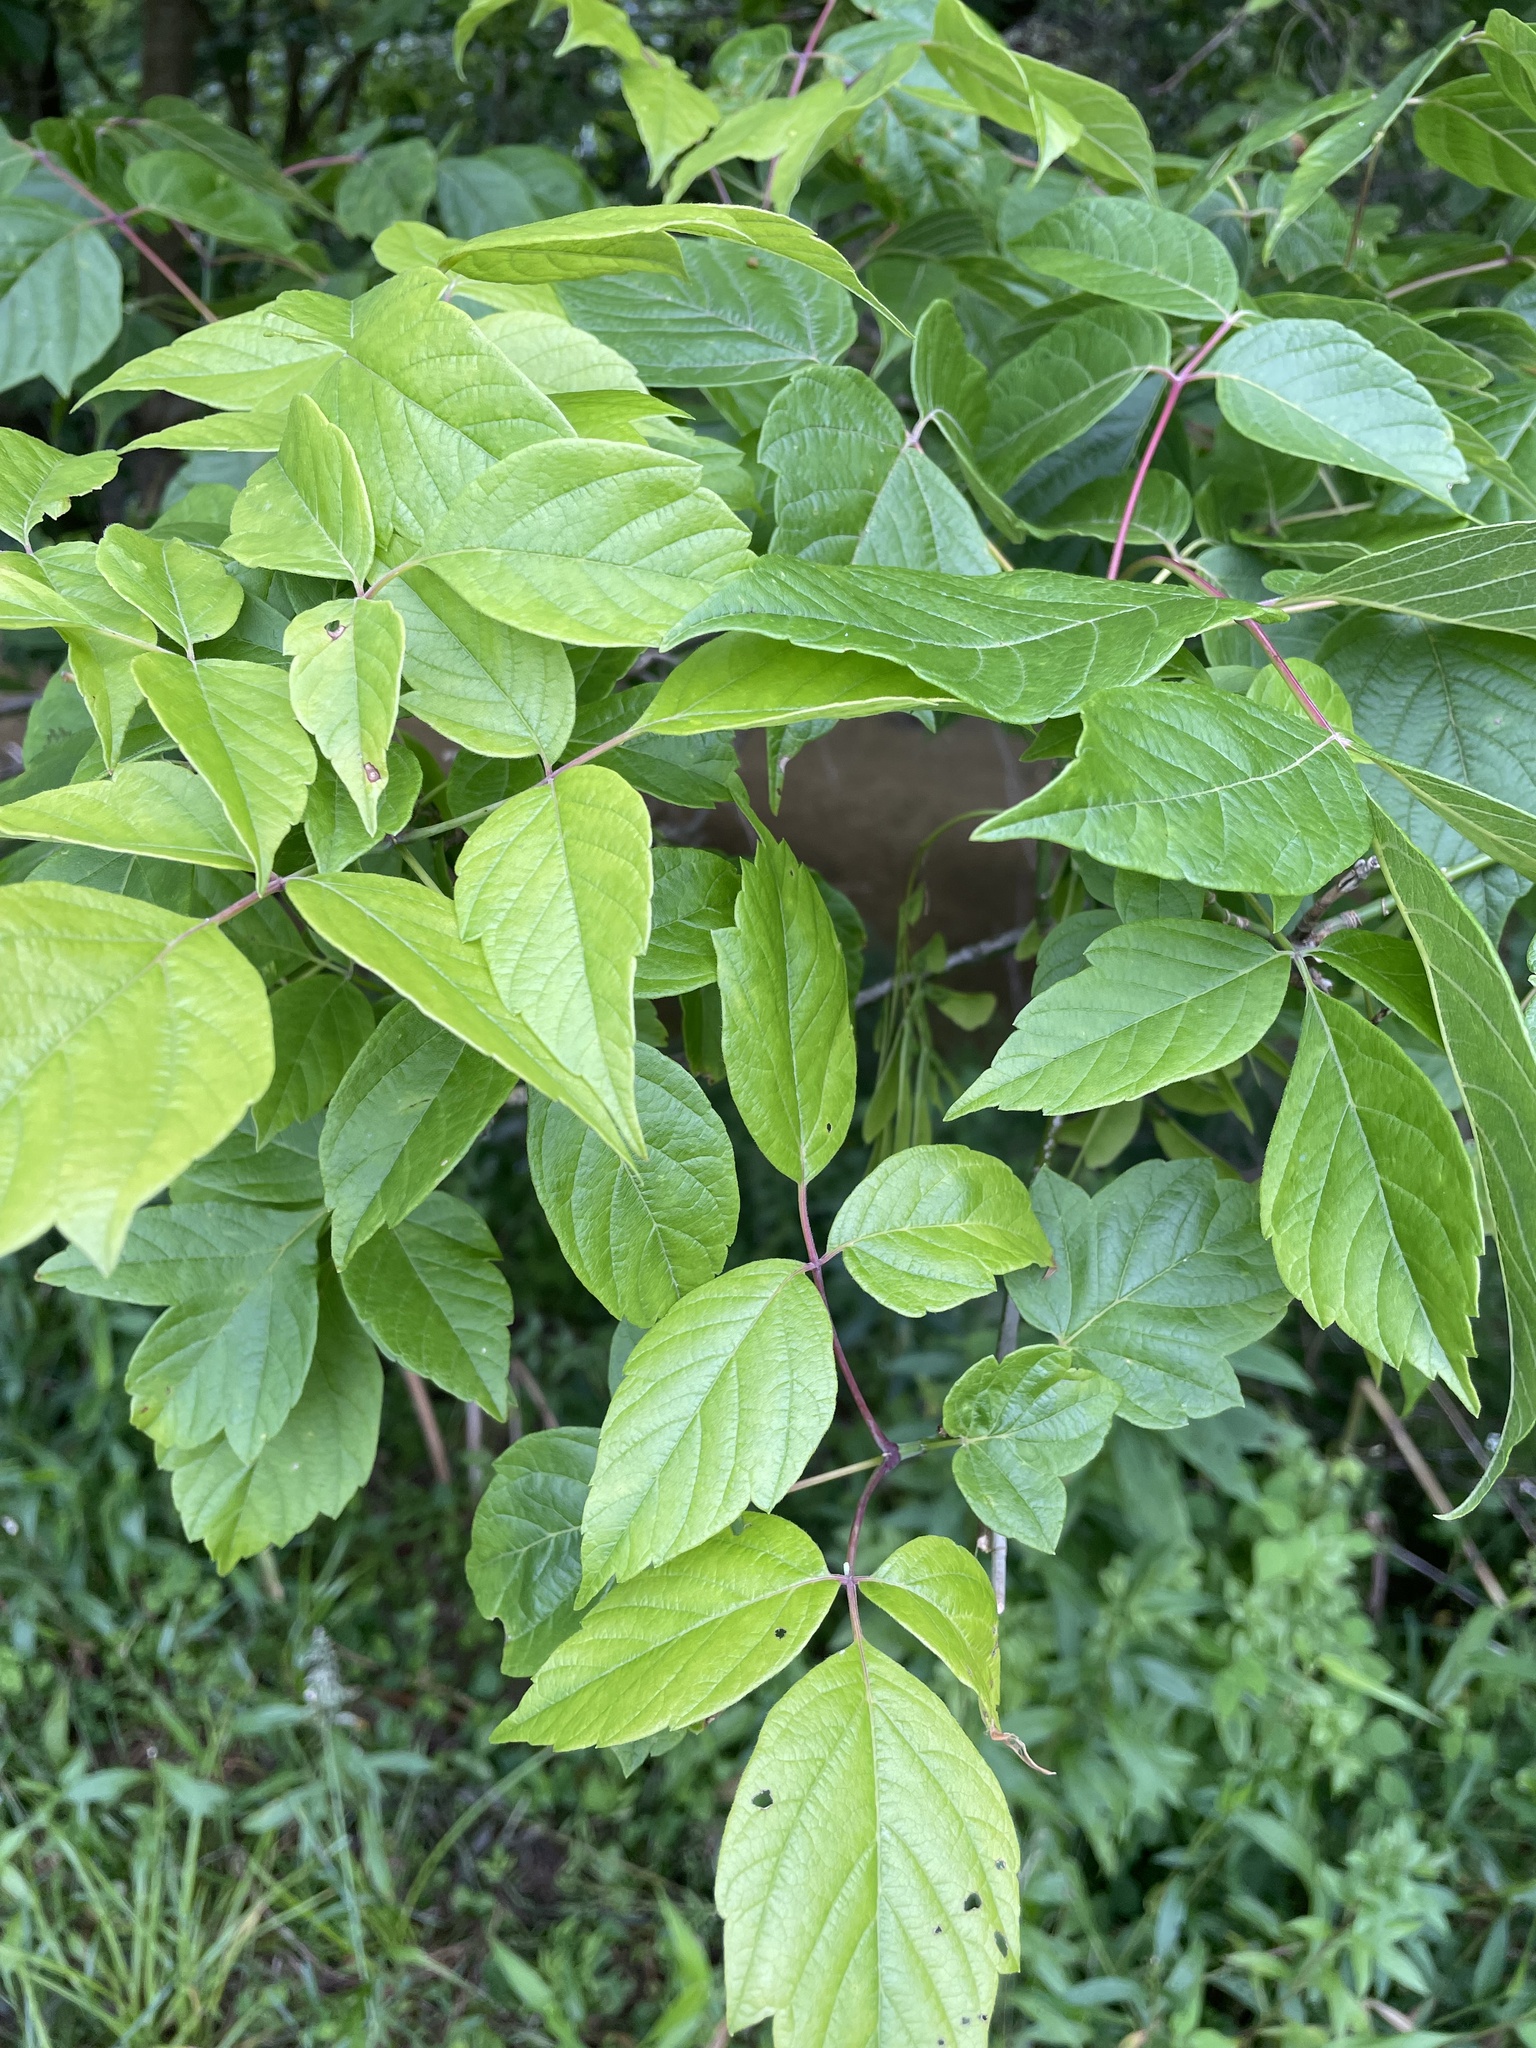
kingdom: Plantae
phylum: Tracheophyta
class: Magnoliopsida
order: Sapindales
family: Sapindaceae
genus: Acer
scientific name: Acer negundo
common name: Ashleaf maple
